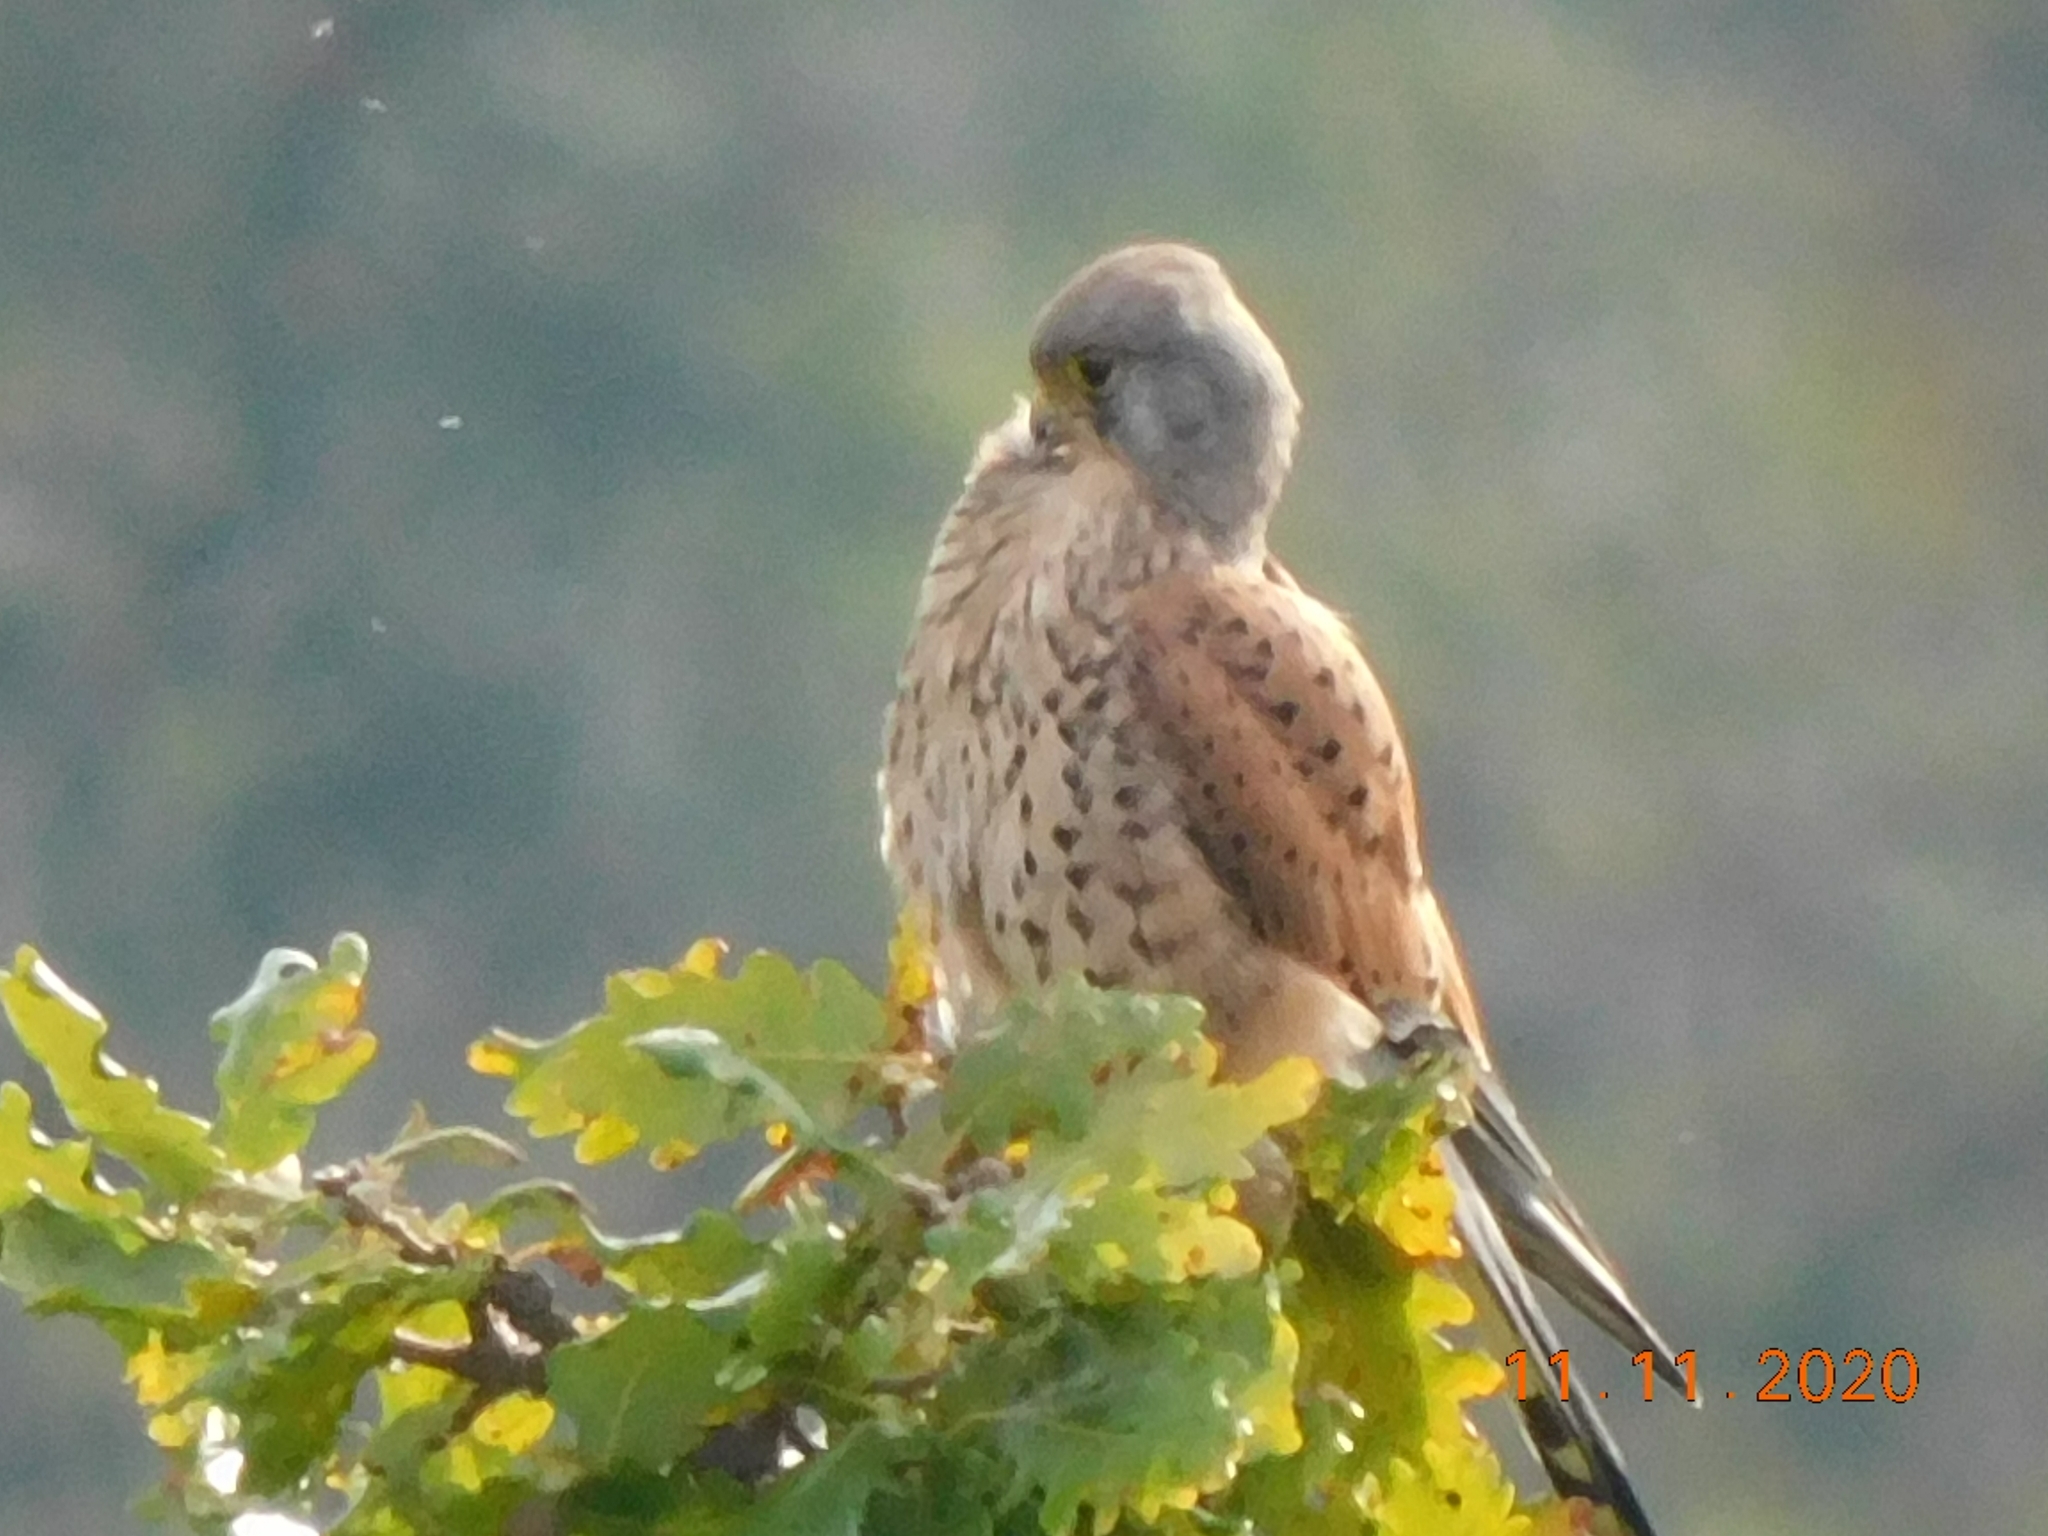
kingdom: Animalia
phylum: Chordata
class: Aves
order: Falconiformes
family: Falconidae
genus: Falco
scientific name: Falco tinnunculus
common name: Common kestrel
